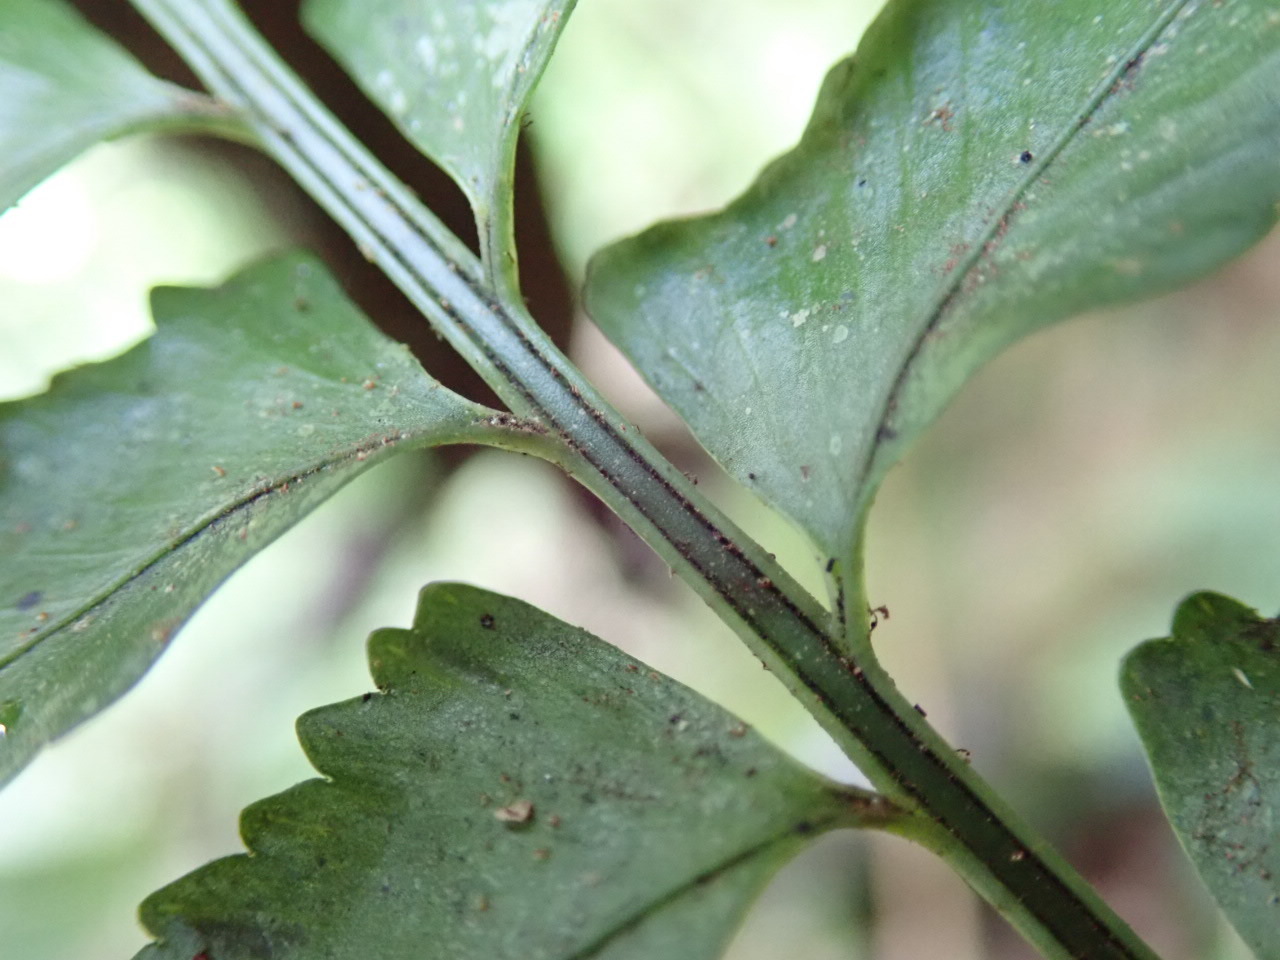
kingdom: Plantae
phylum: Tracheophyta
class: Polypodiopsida
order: Polypodiales
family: Aspleniaceae
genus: Asplenium
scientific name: Asplenium tenerum
